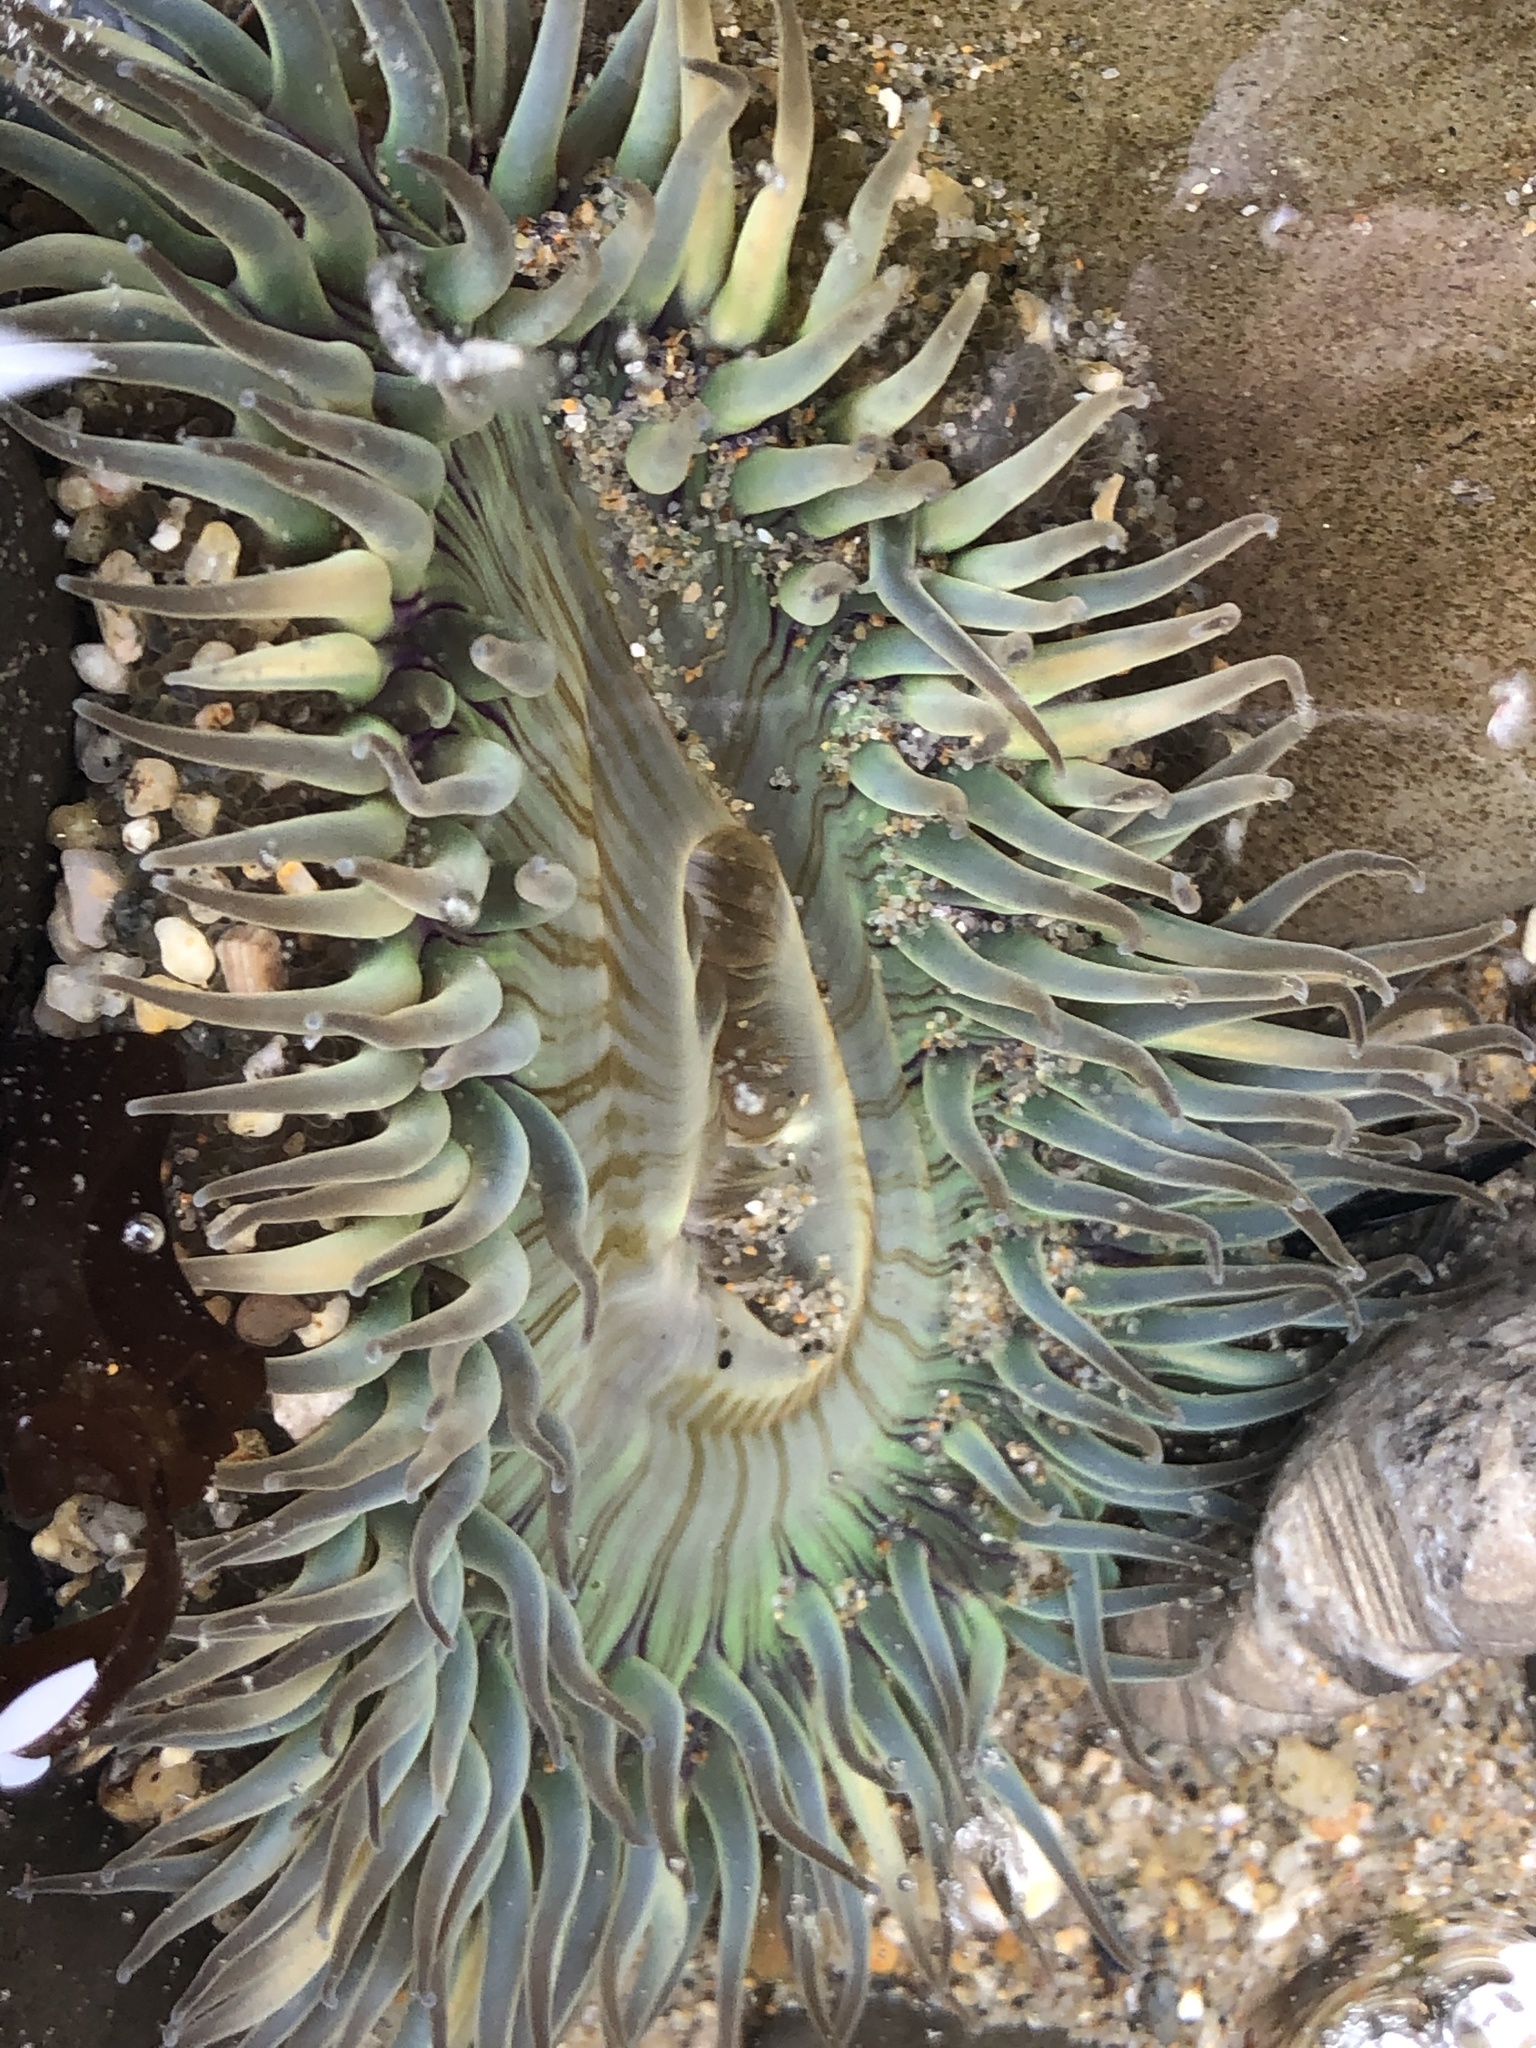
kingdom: Animalia
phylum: Cnidaria
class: Anthozoa
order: Actiniaria
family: Actiniidae
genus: Anthopleura
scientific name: Anthopleura sola
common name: Sun anemone
